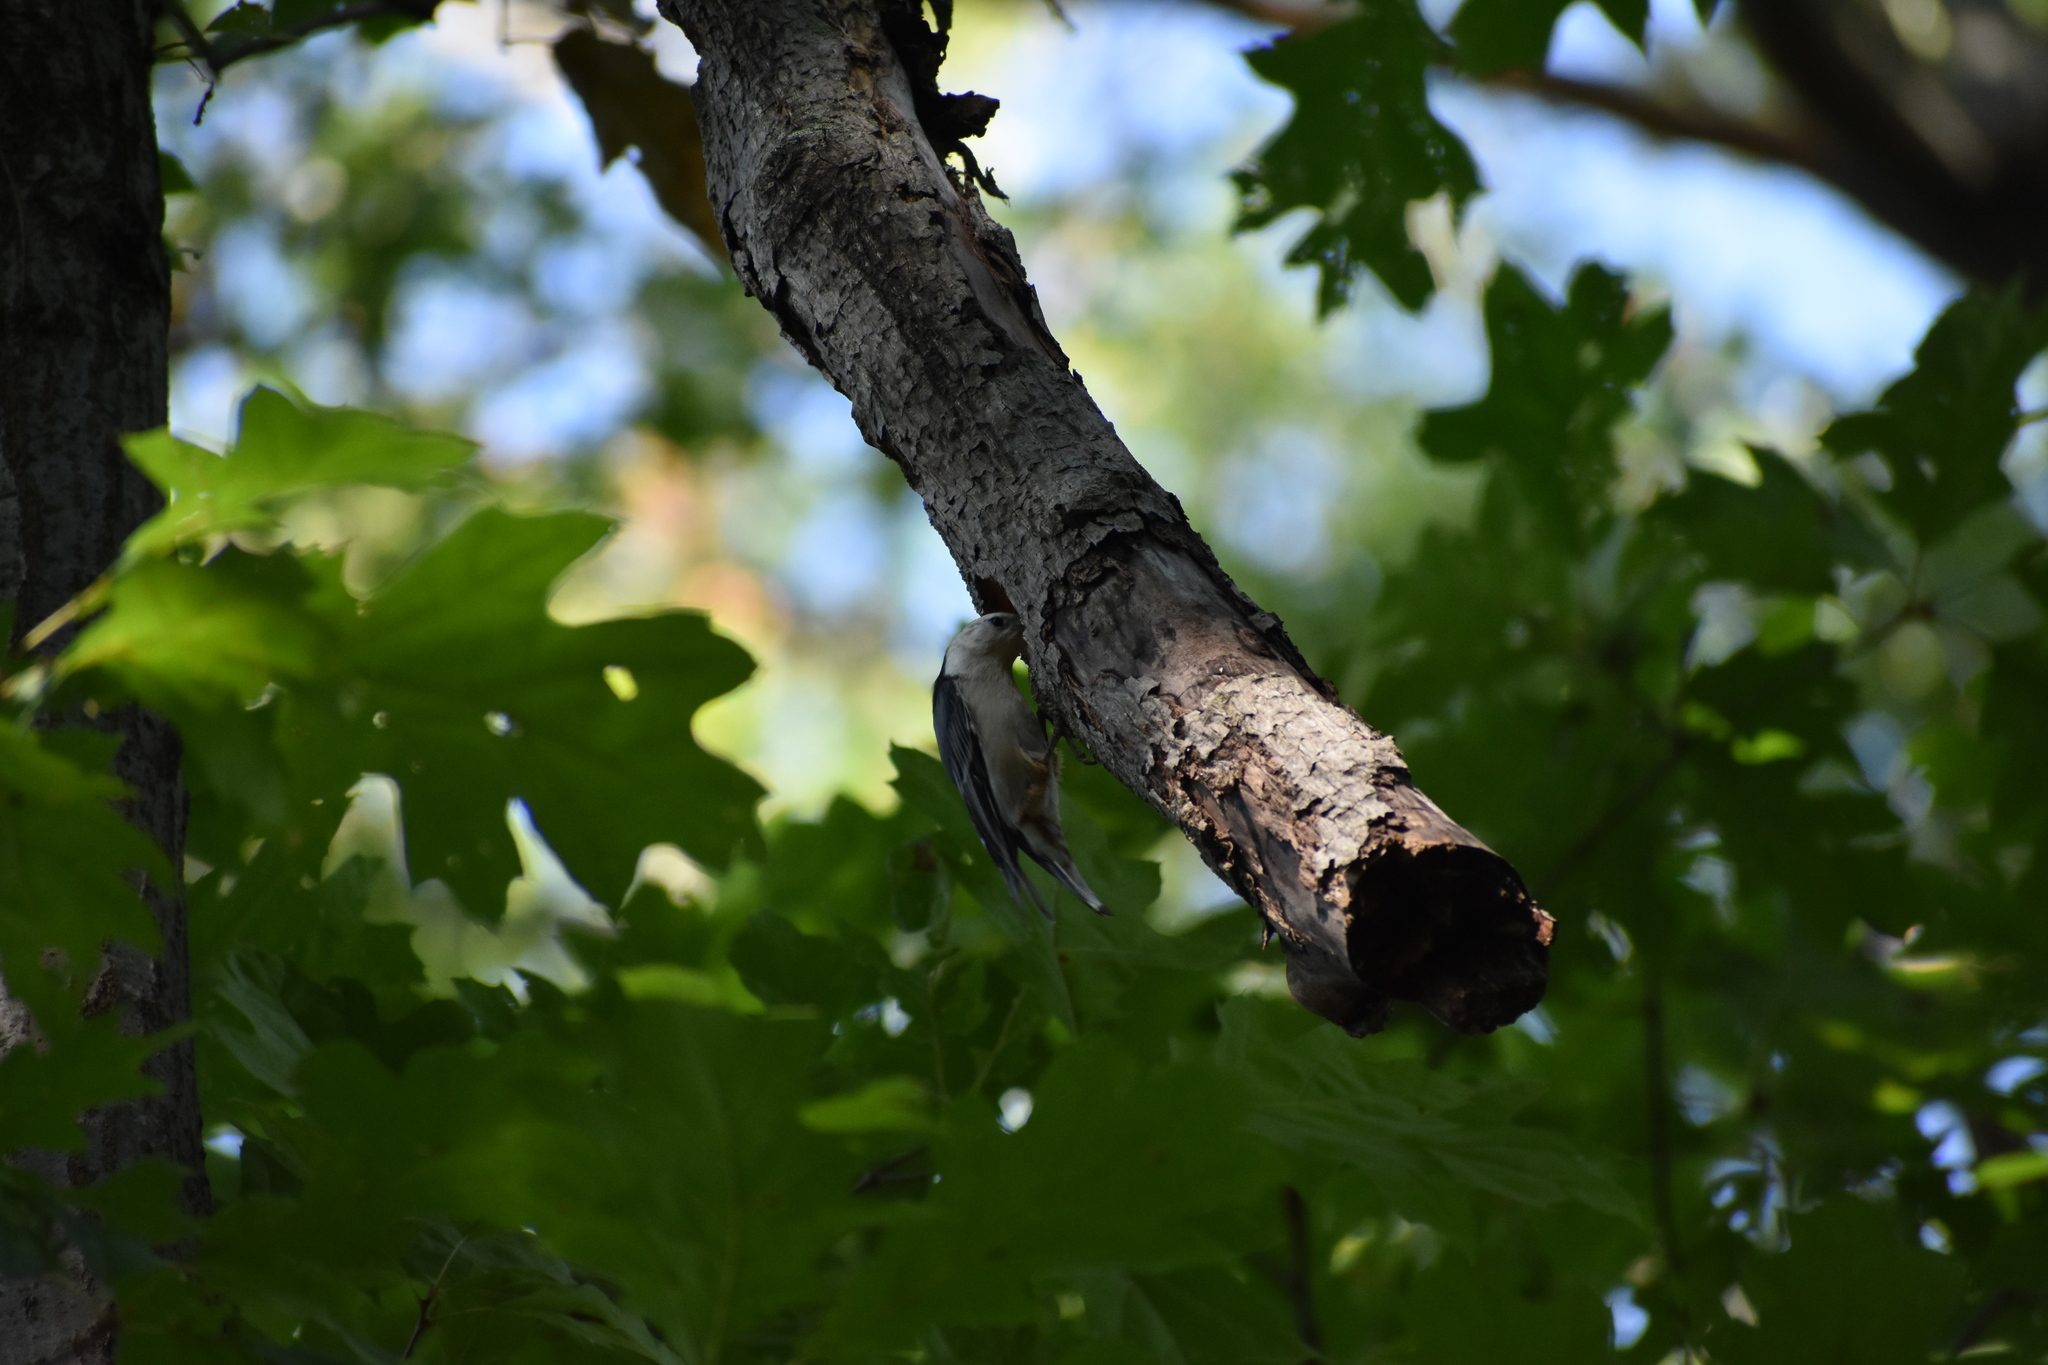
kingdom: Animalia
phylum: Chordata
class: Aves
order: Passeriformes
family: Sittidae
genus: Sitta
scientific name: Sitta carolinensis
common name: White-breasted nuthatch
